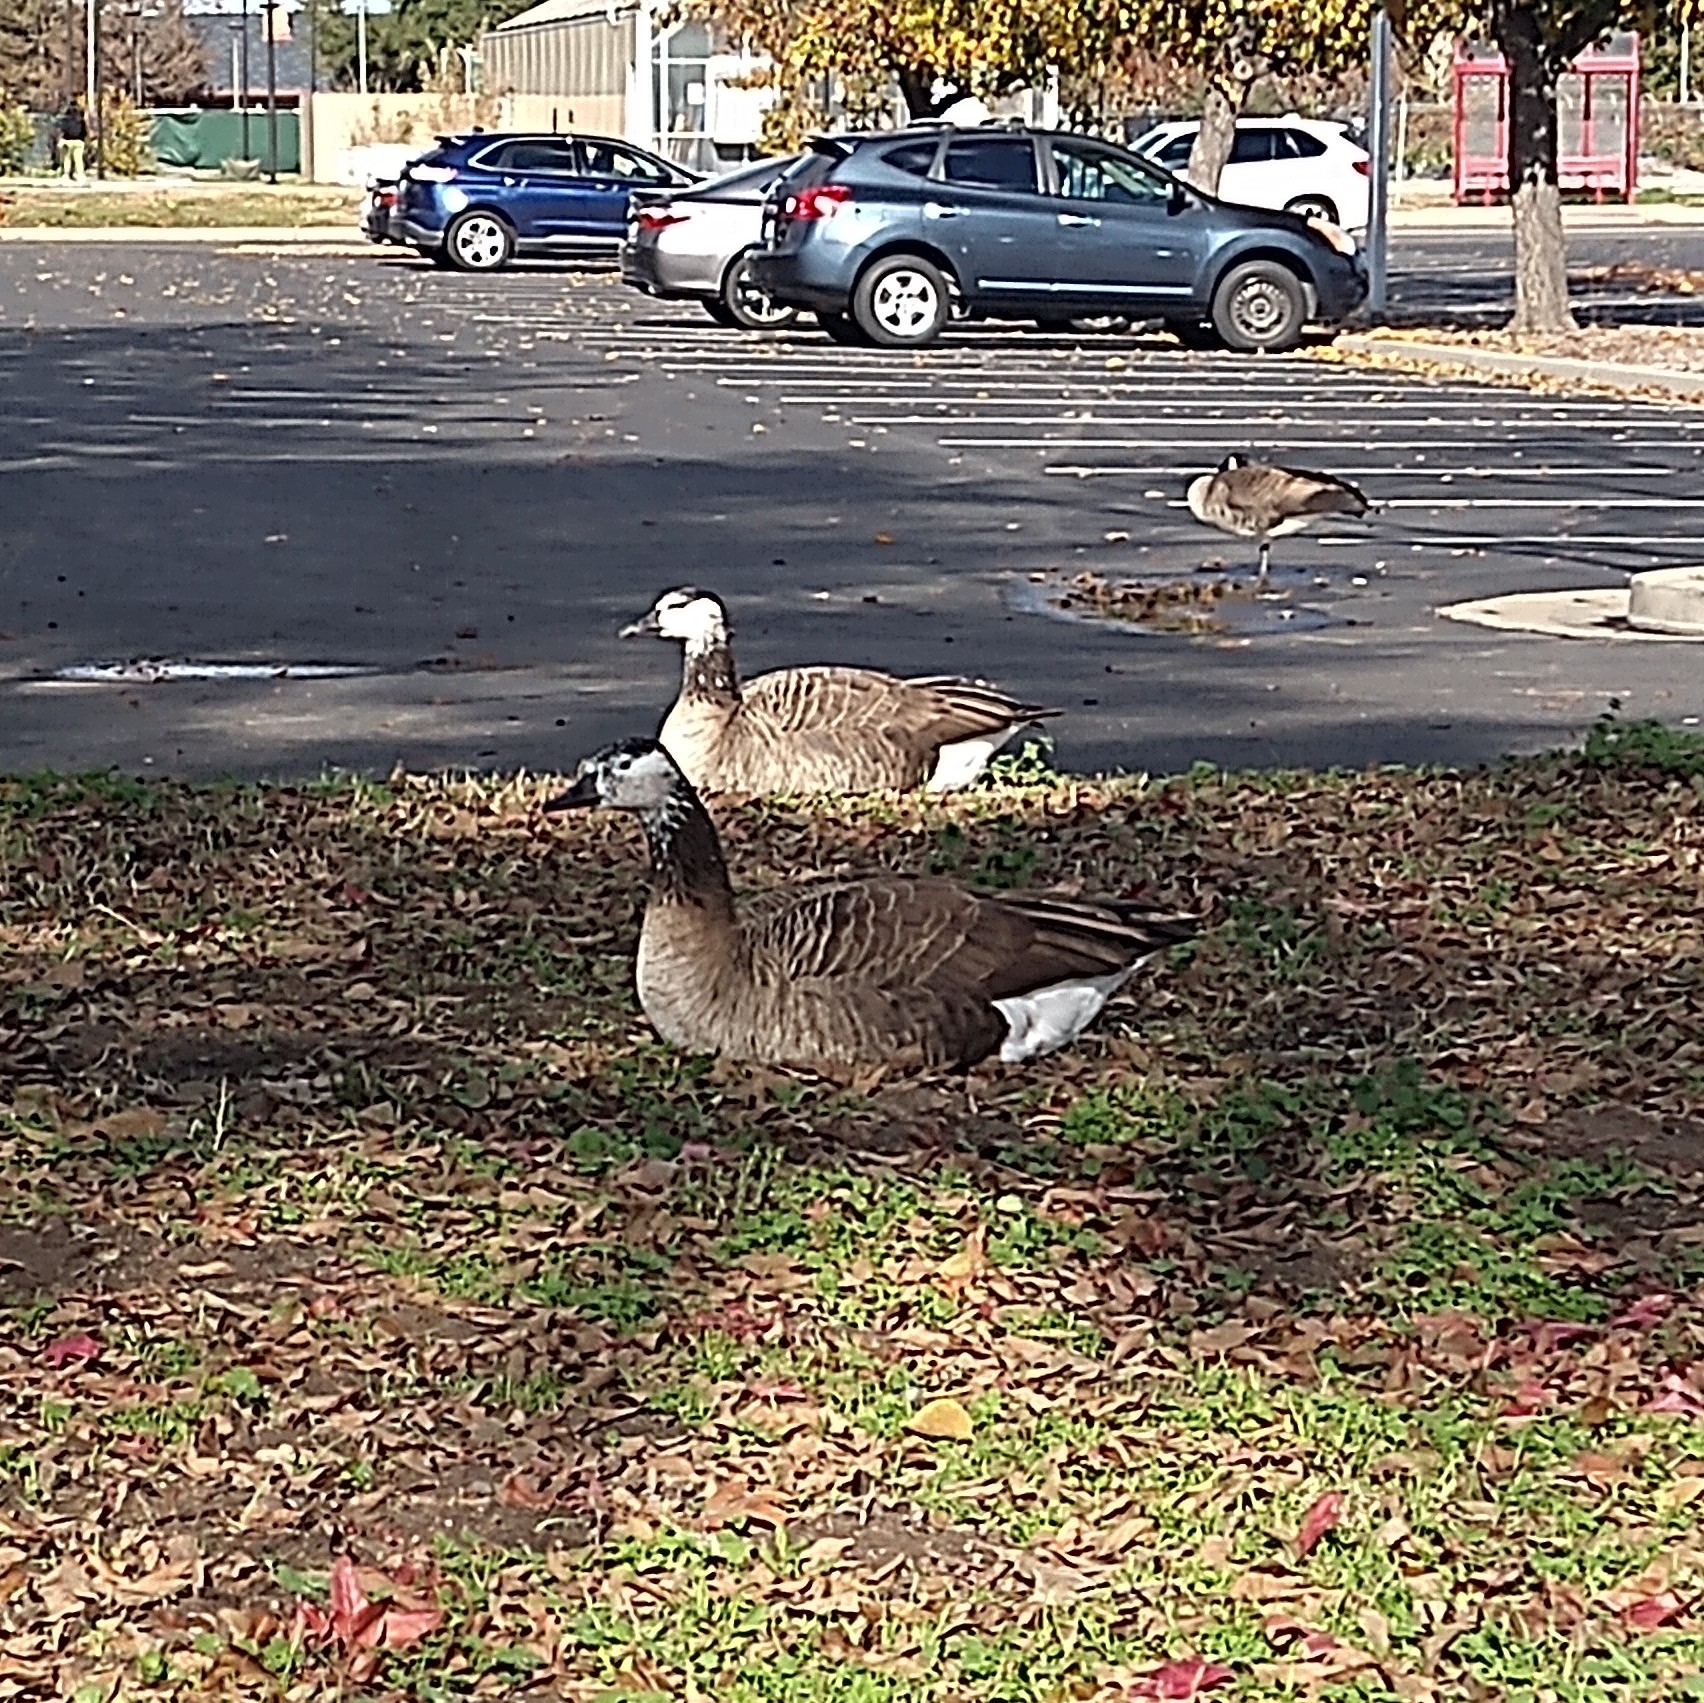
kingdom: Animalia
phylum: Chordata
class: Aves
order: Anseriformes
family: Anatidae
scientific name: Anatidae
